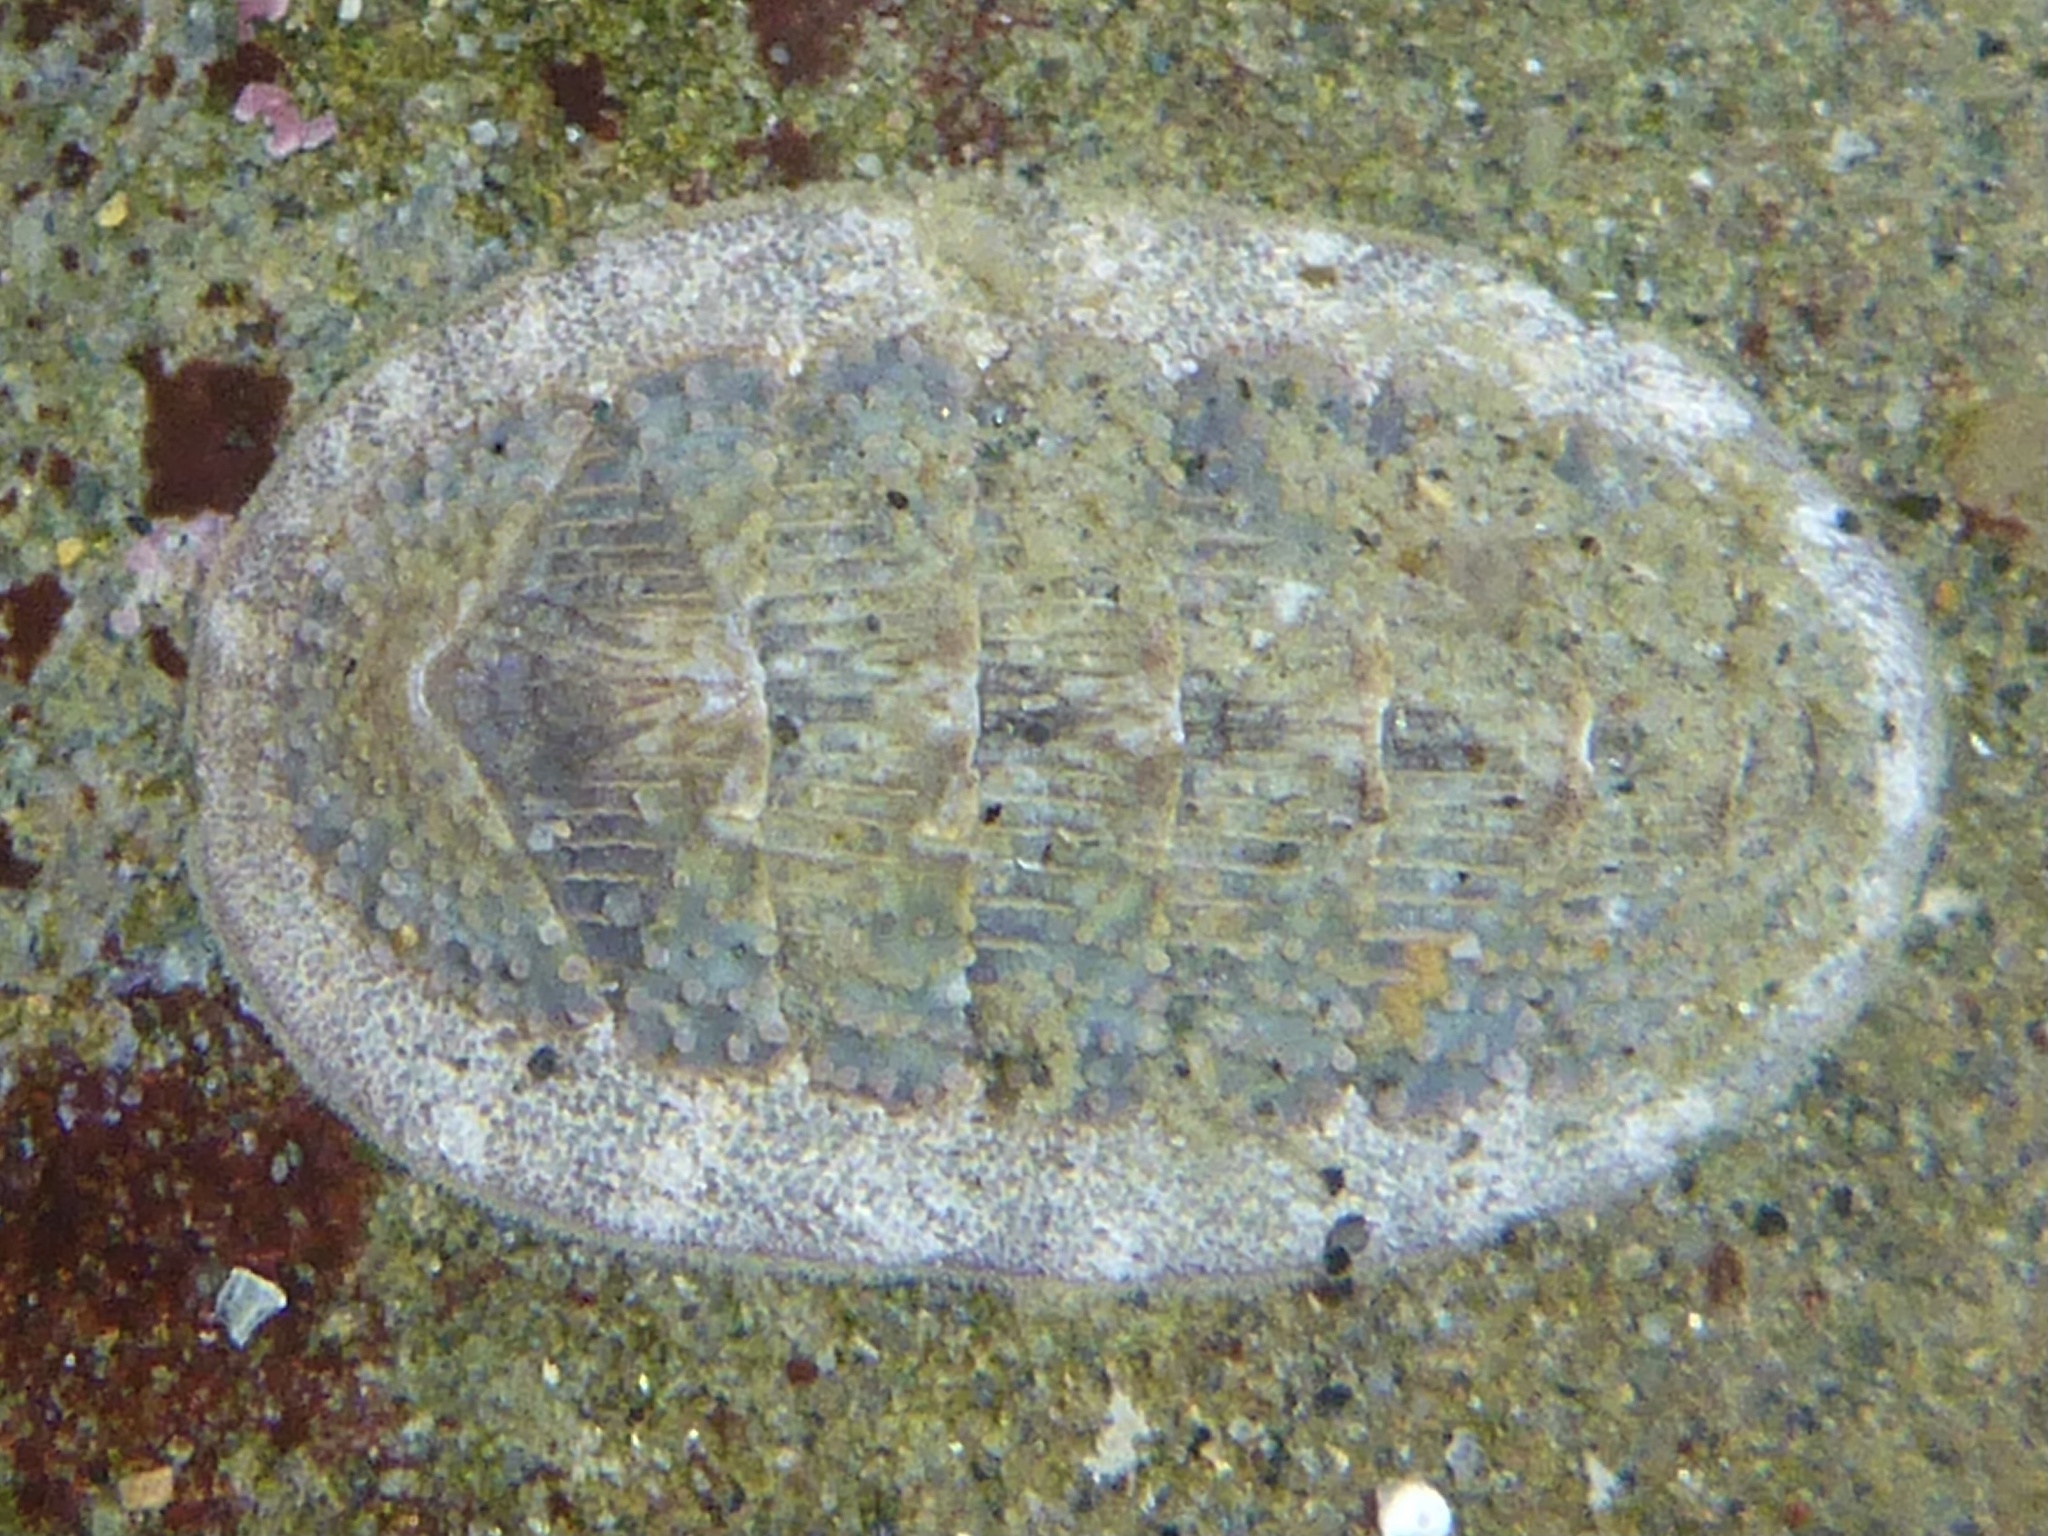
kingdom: Animalia
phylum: Mollusca
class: Polyplacophora
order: Chitonida
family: Ischnochitonidae
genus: Lepidozona
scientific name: Lepidozona cooperi
